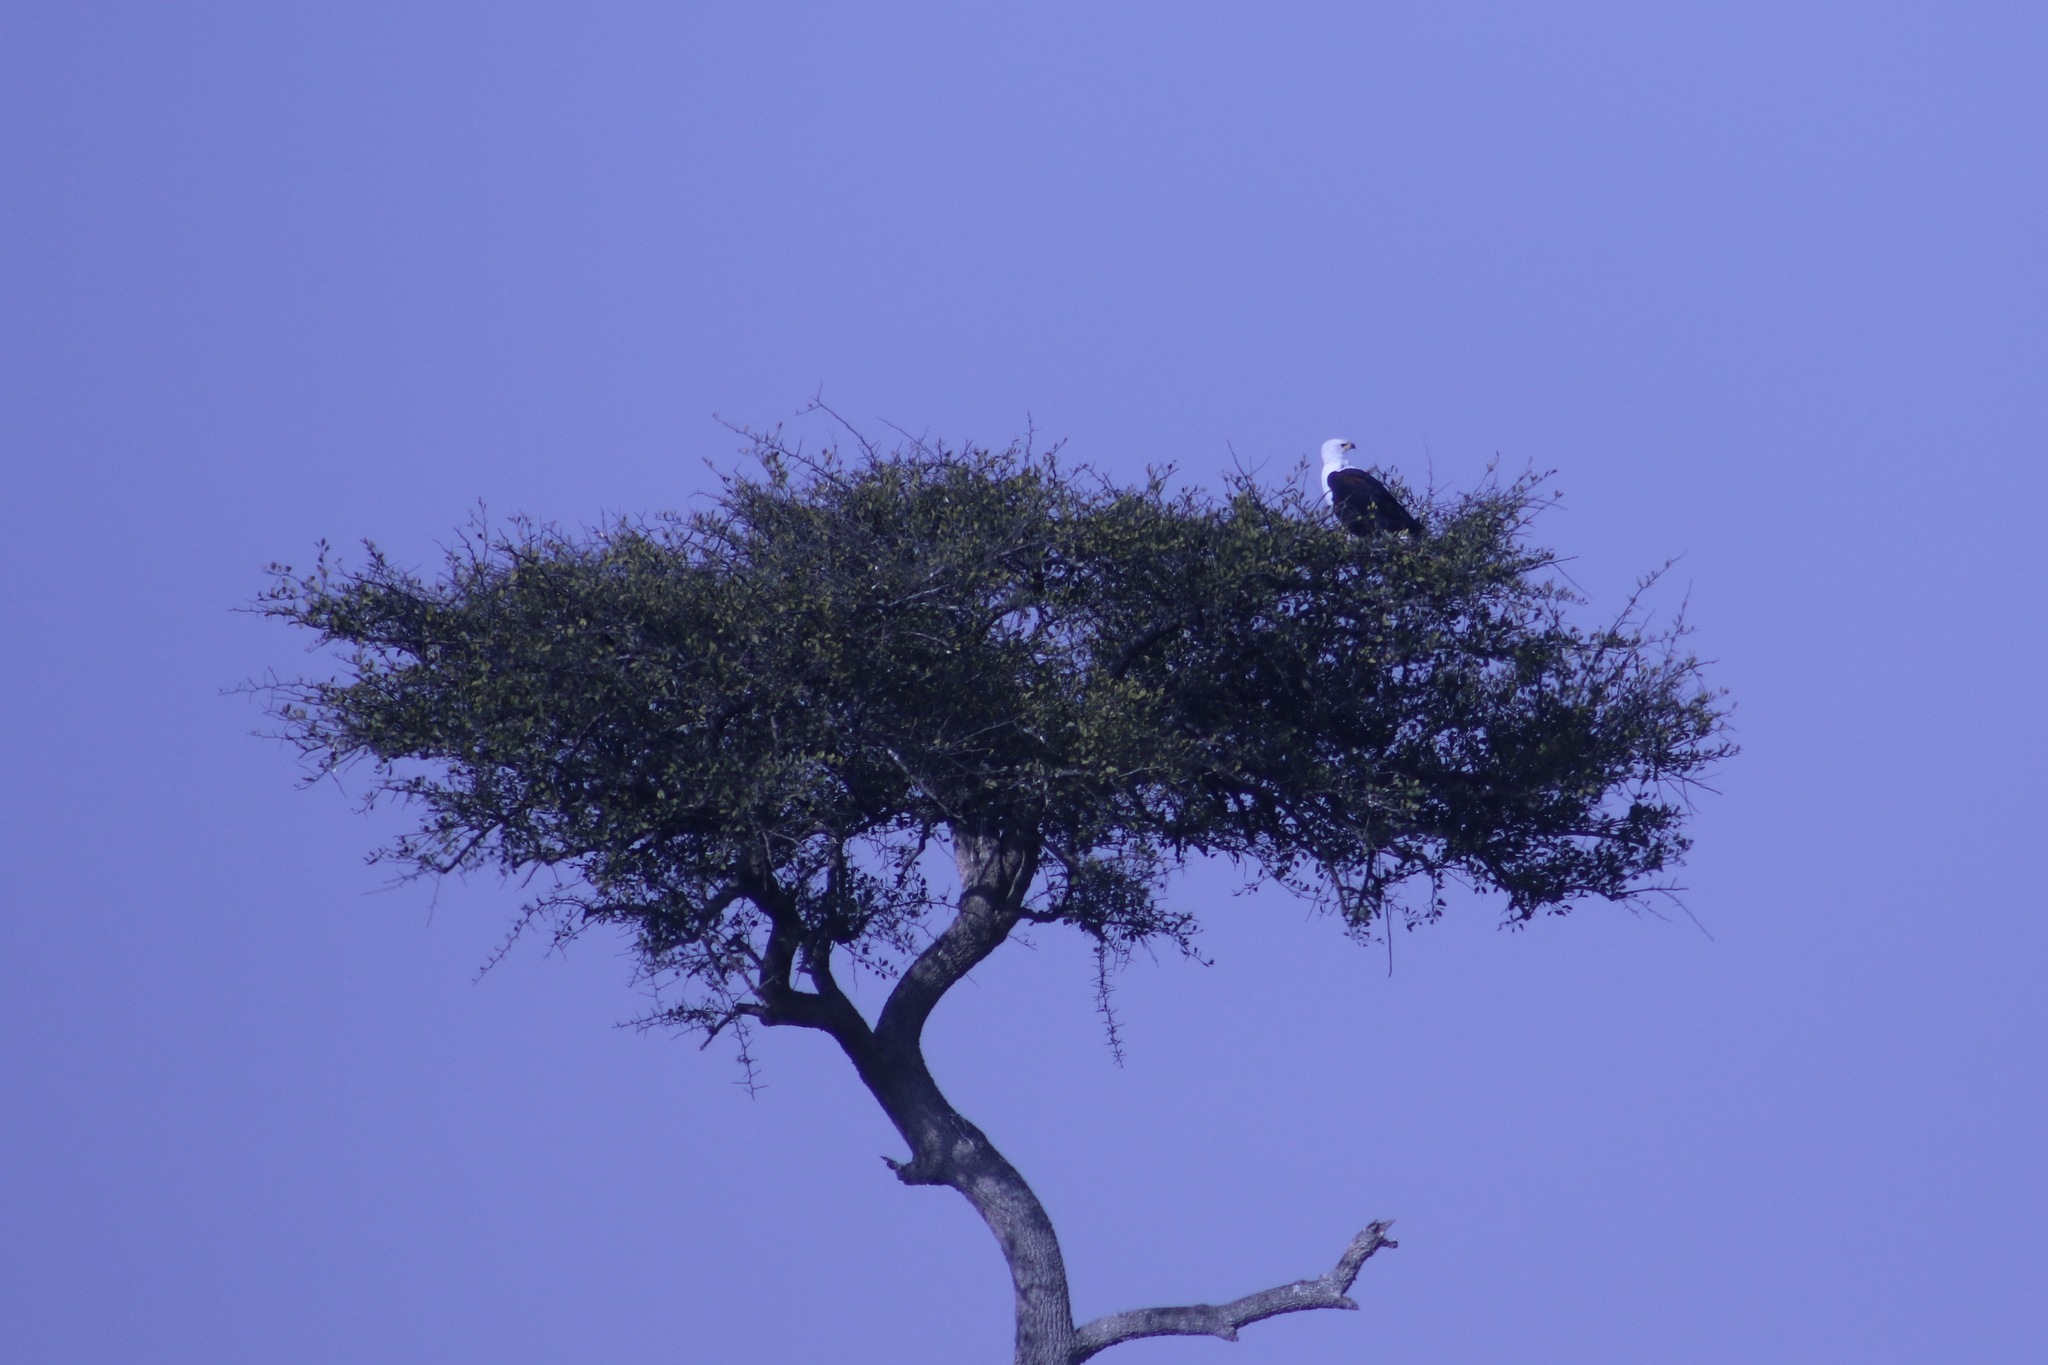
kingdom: Animalia
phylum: Chordata
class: Aves
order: Accipitriformes
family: Accipitridae
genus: Haliaeetus
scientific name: Haliaeetus vocifer
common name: African fish eagle
